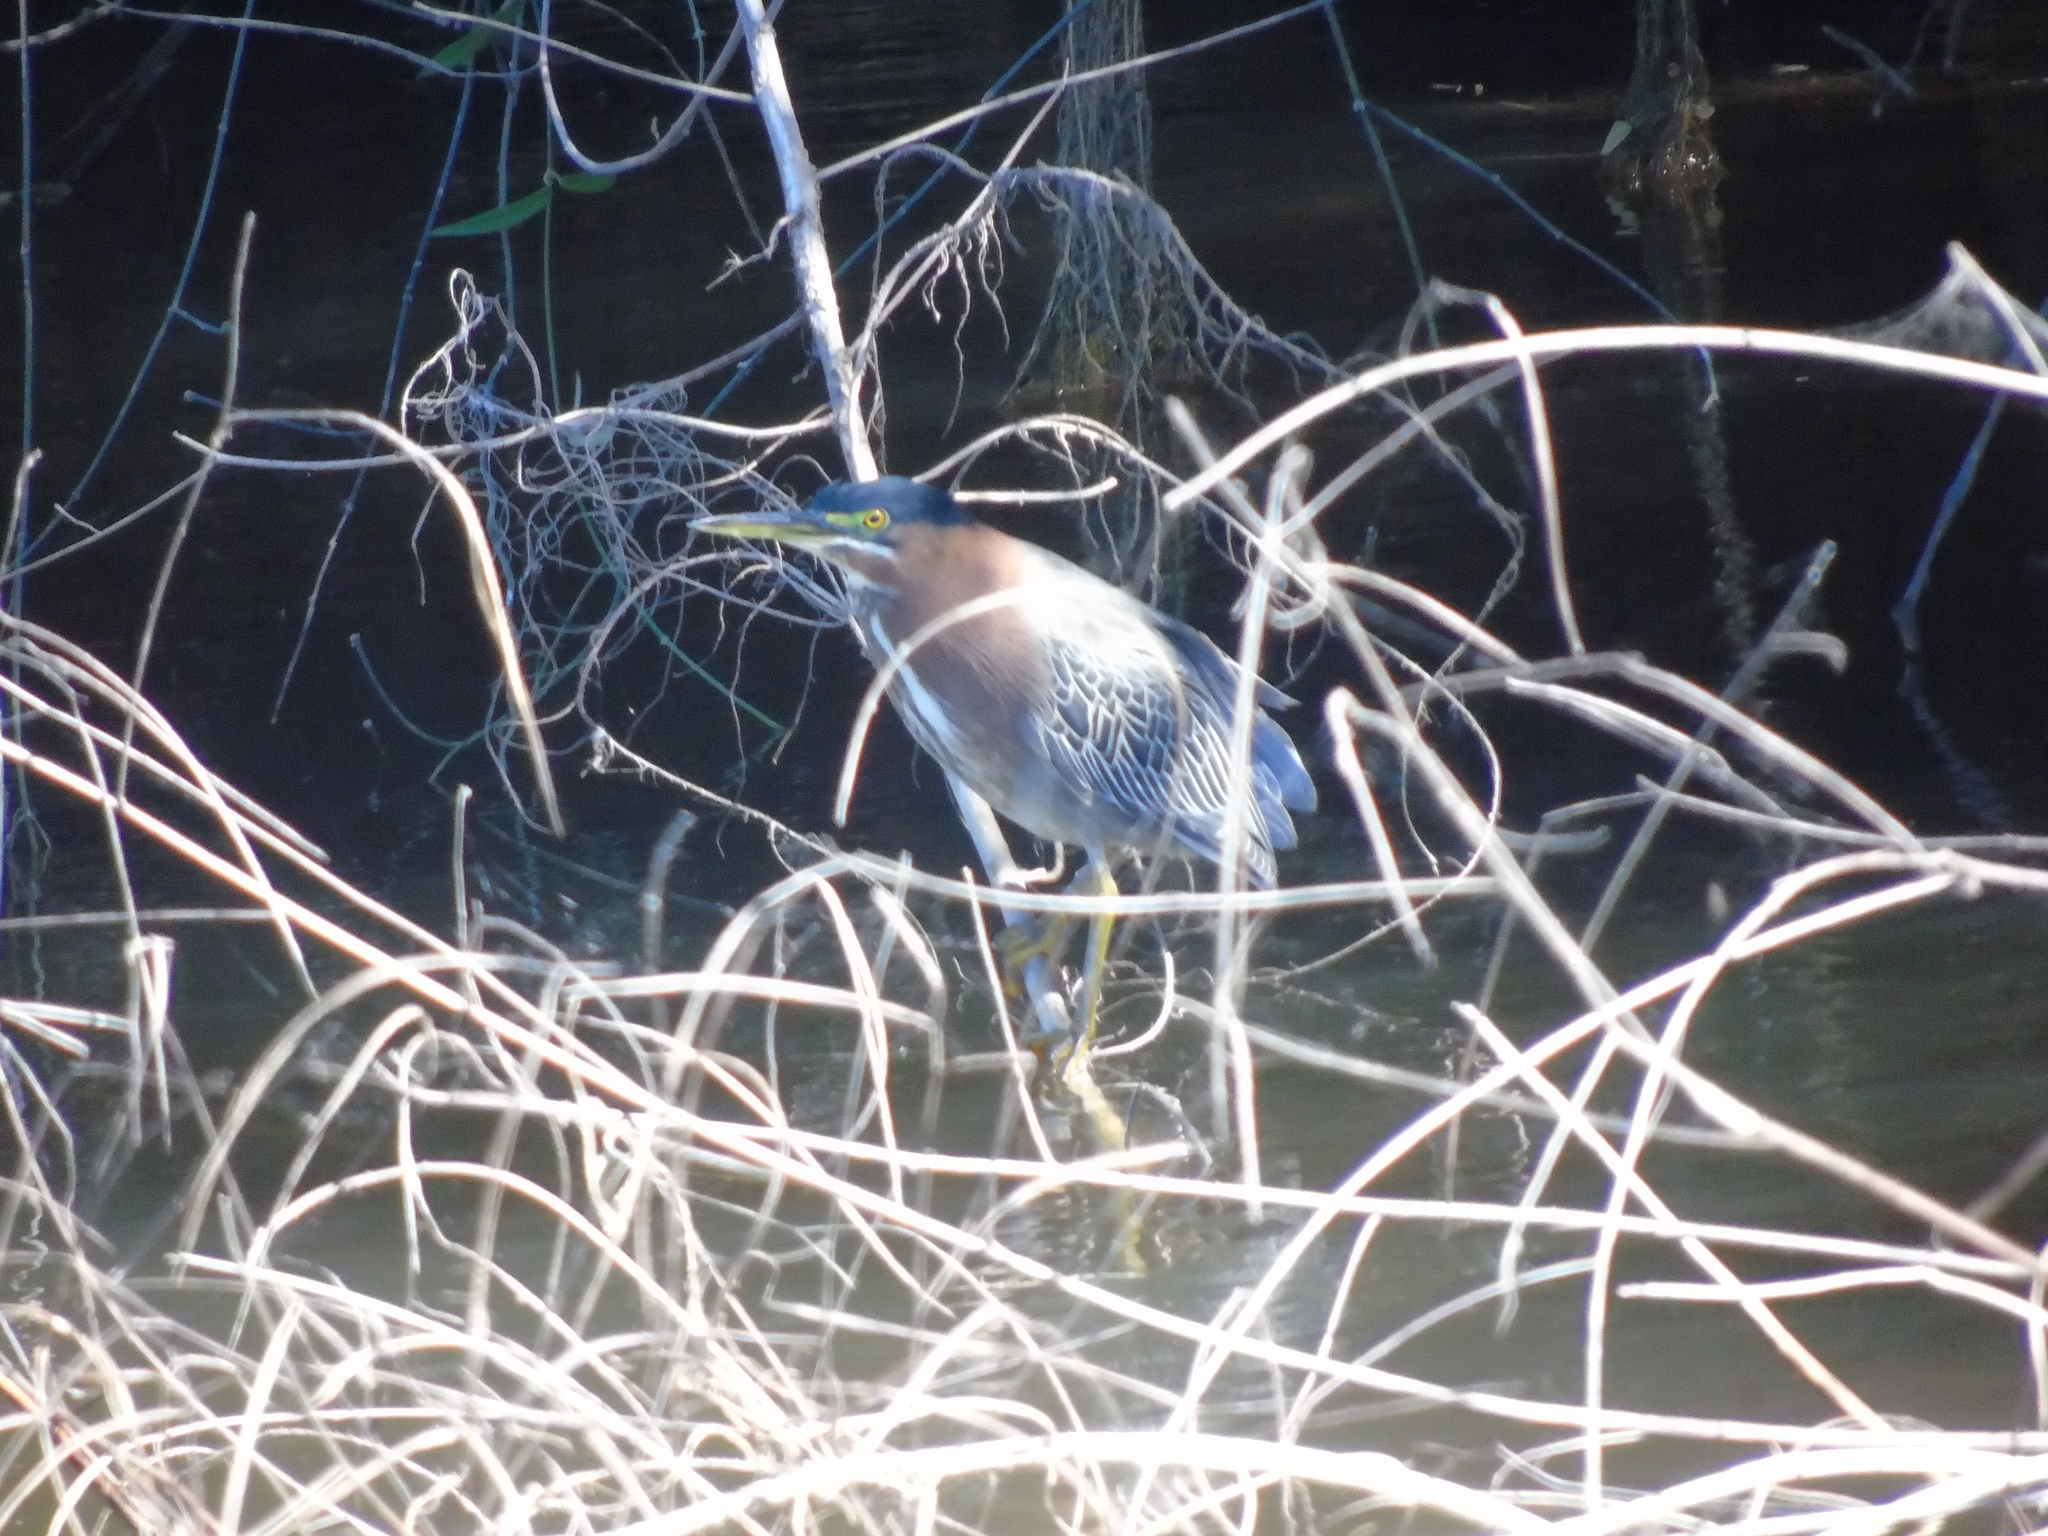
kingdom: Animalia
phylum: Chordata
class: Aves
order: Pelecaniformes
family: Ardeidae
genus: Butorides
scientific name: Butorides virescens
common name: Green heron
